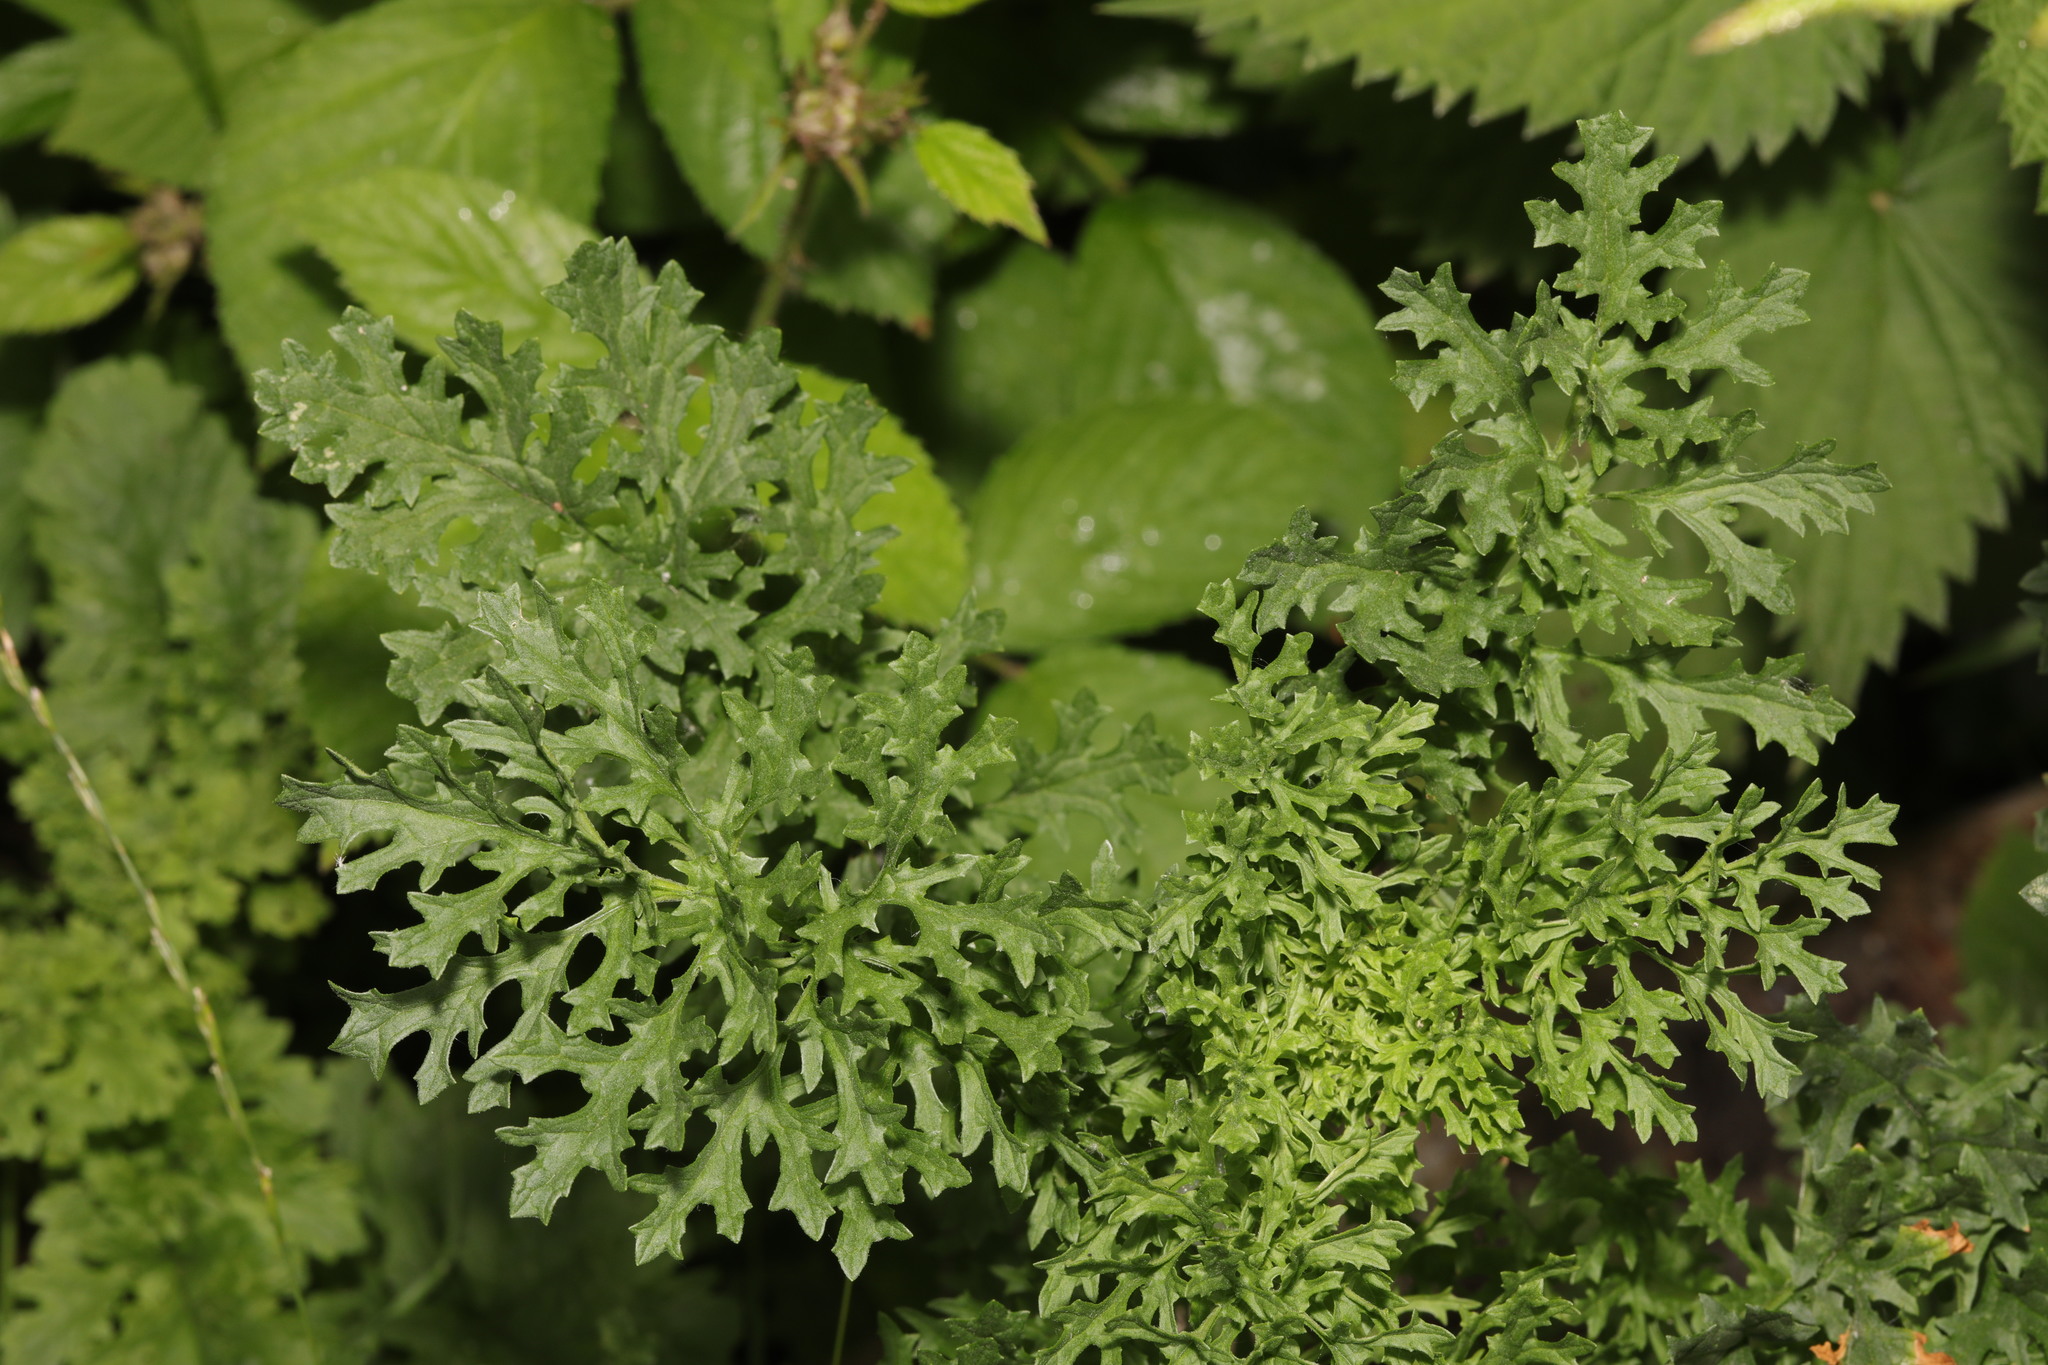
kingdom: Plantae
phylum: Tracheophyta
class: Magnoliopsida
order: Asterales
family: Asteraceae
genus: Jacobaea
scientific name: Jacobaea vulgaris
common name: Stinking willie
